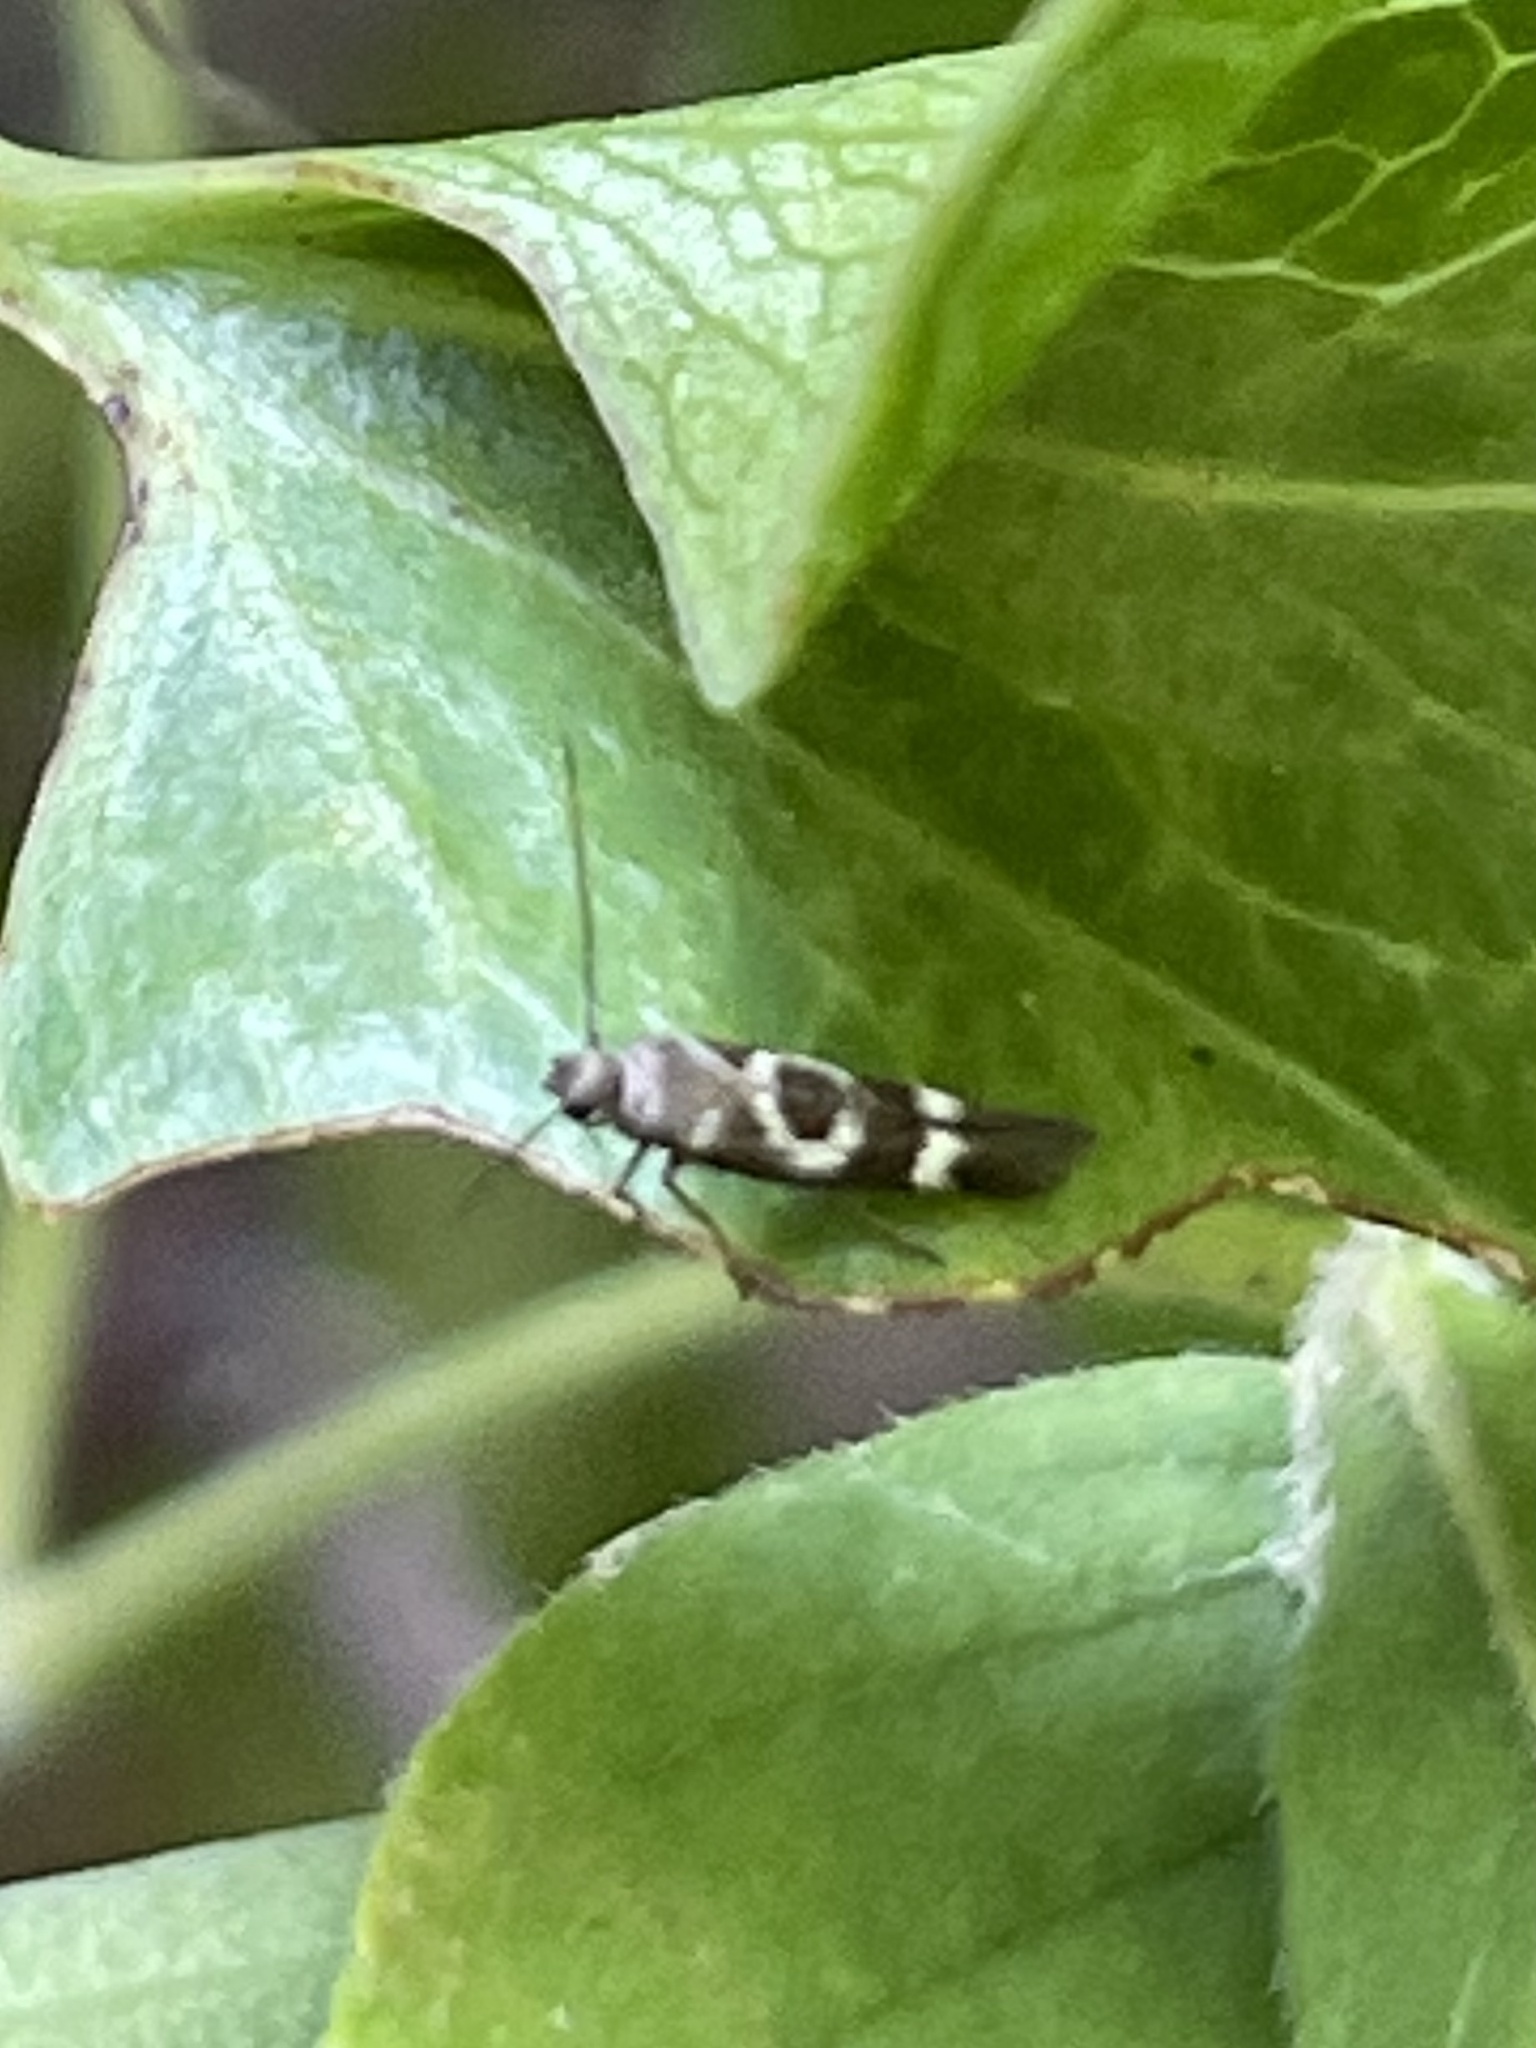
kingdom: Animalia
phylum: Arthropoda
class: Insecta
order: Lepidoptera
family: Scythrididae
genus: Scythris
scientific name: Scythris trivinctella
